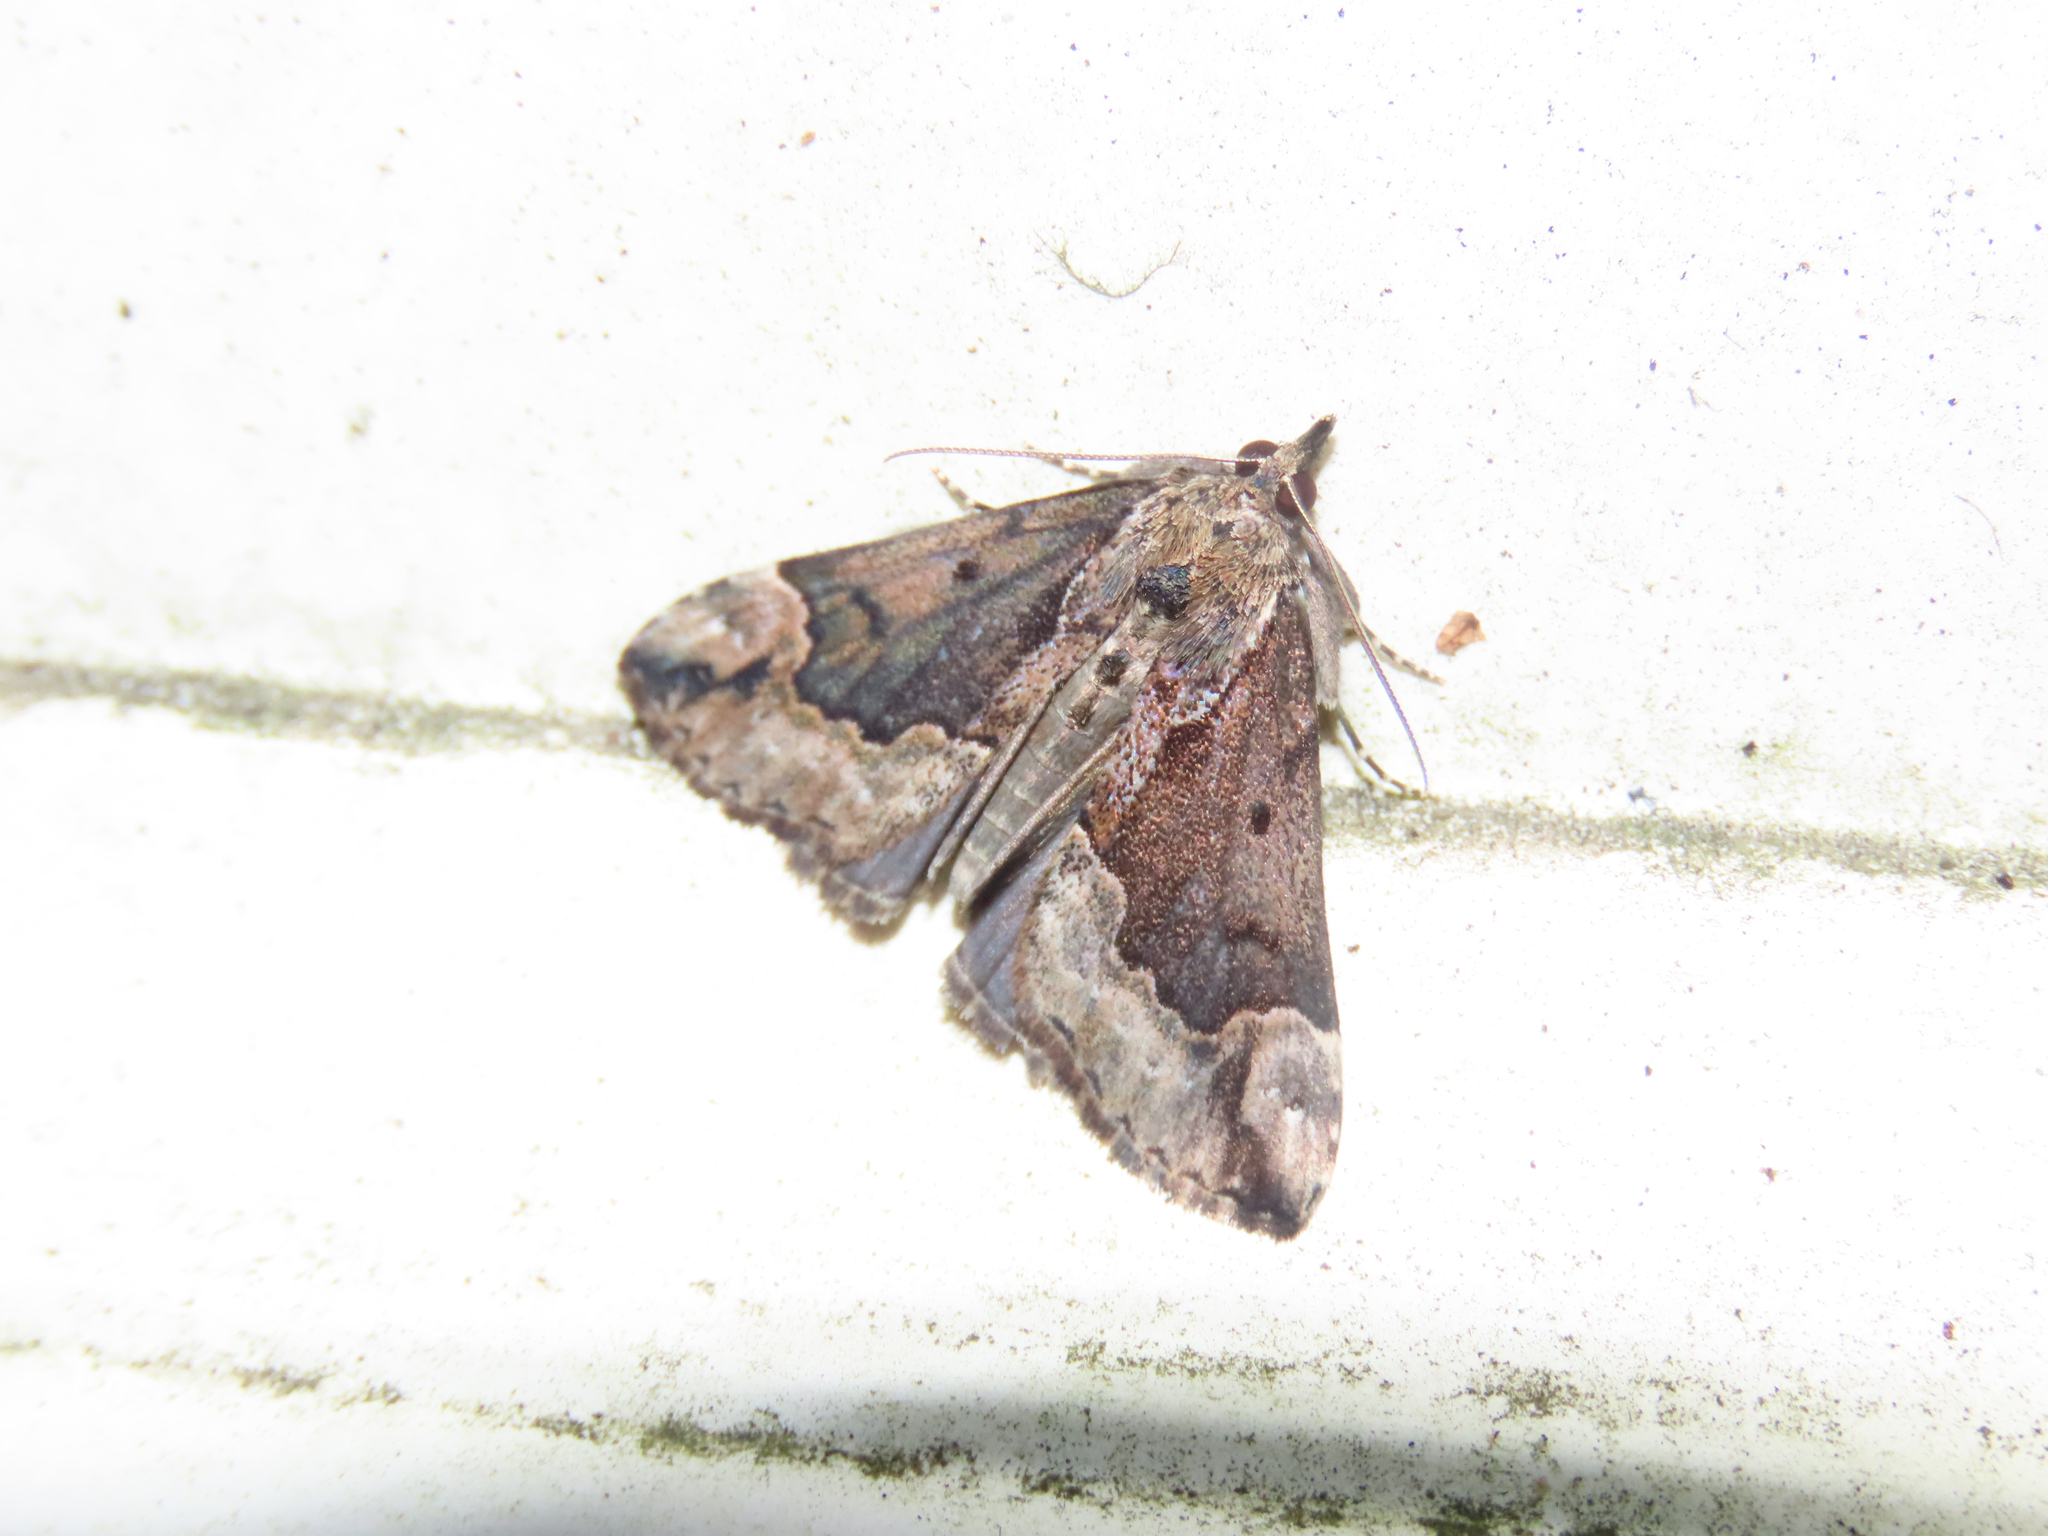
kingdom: Animalia
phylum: Arthropoda
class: Insecta
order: Lepidoptera
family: Erebidae
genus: Hypena
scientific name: Hypena baltimoralis
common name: Baltimore snout
